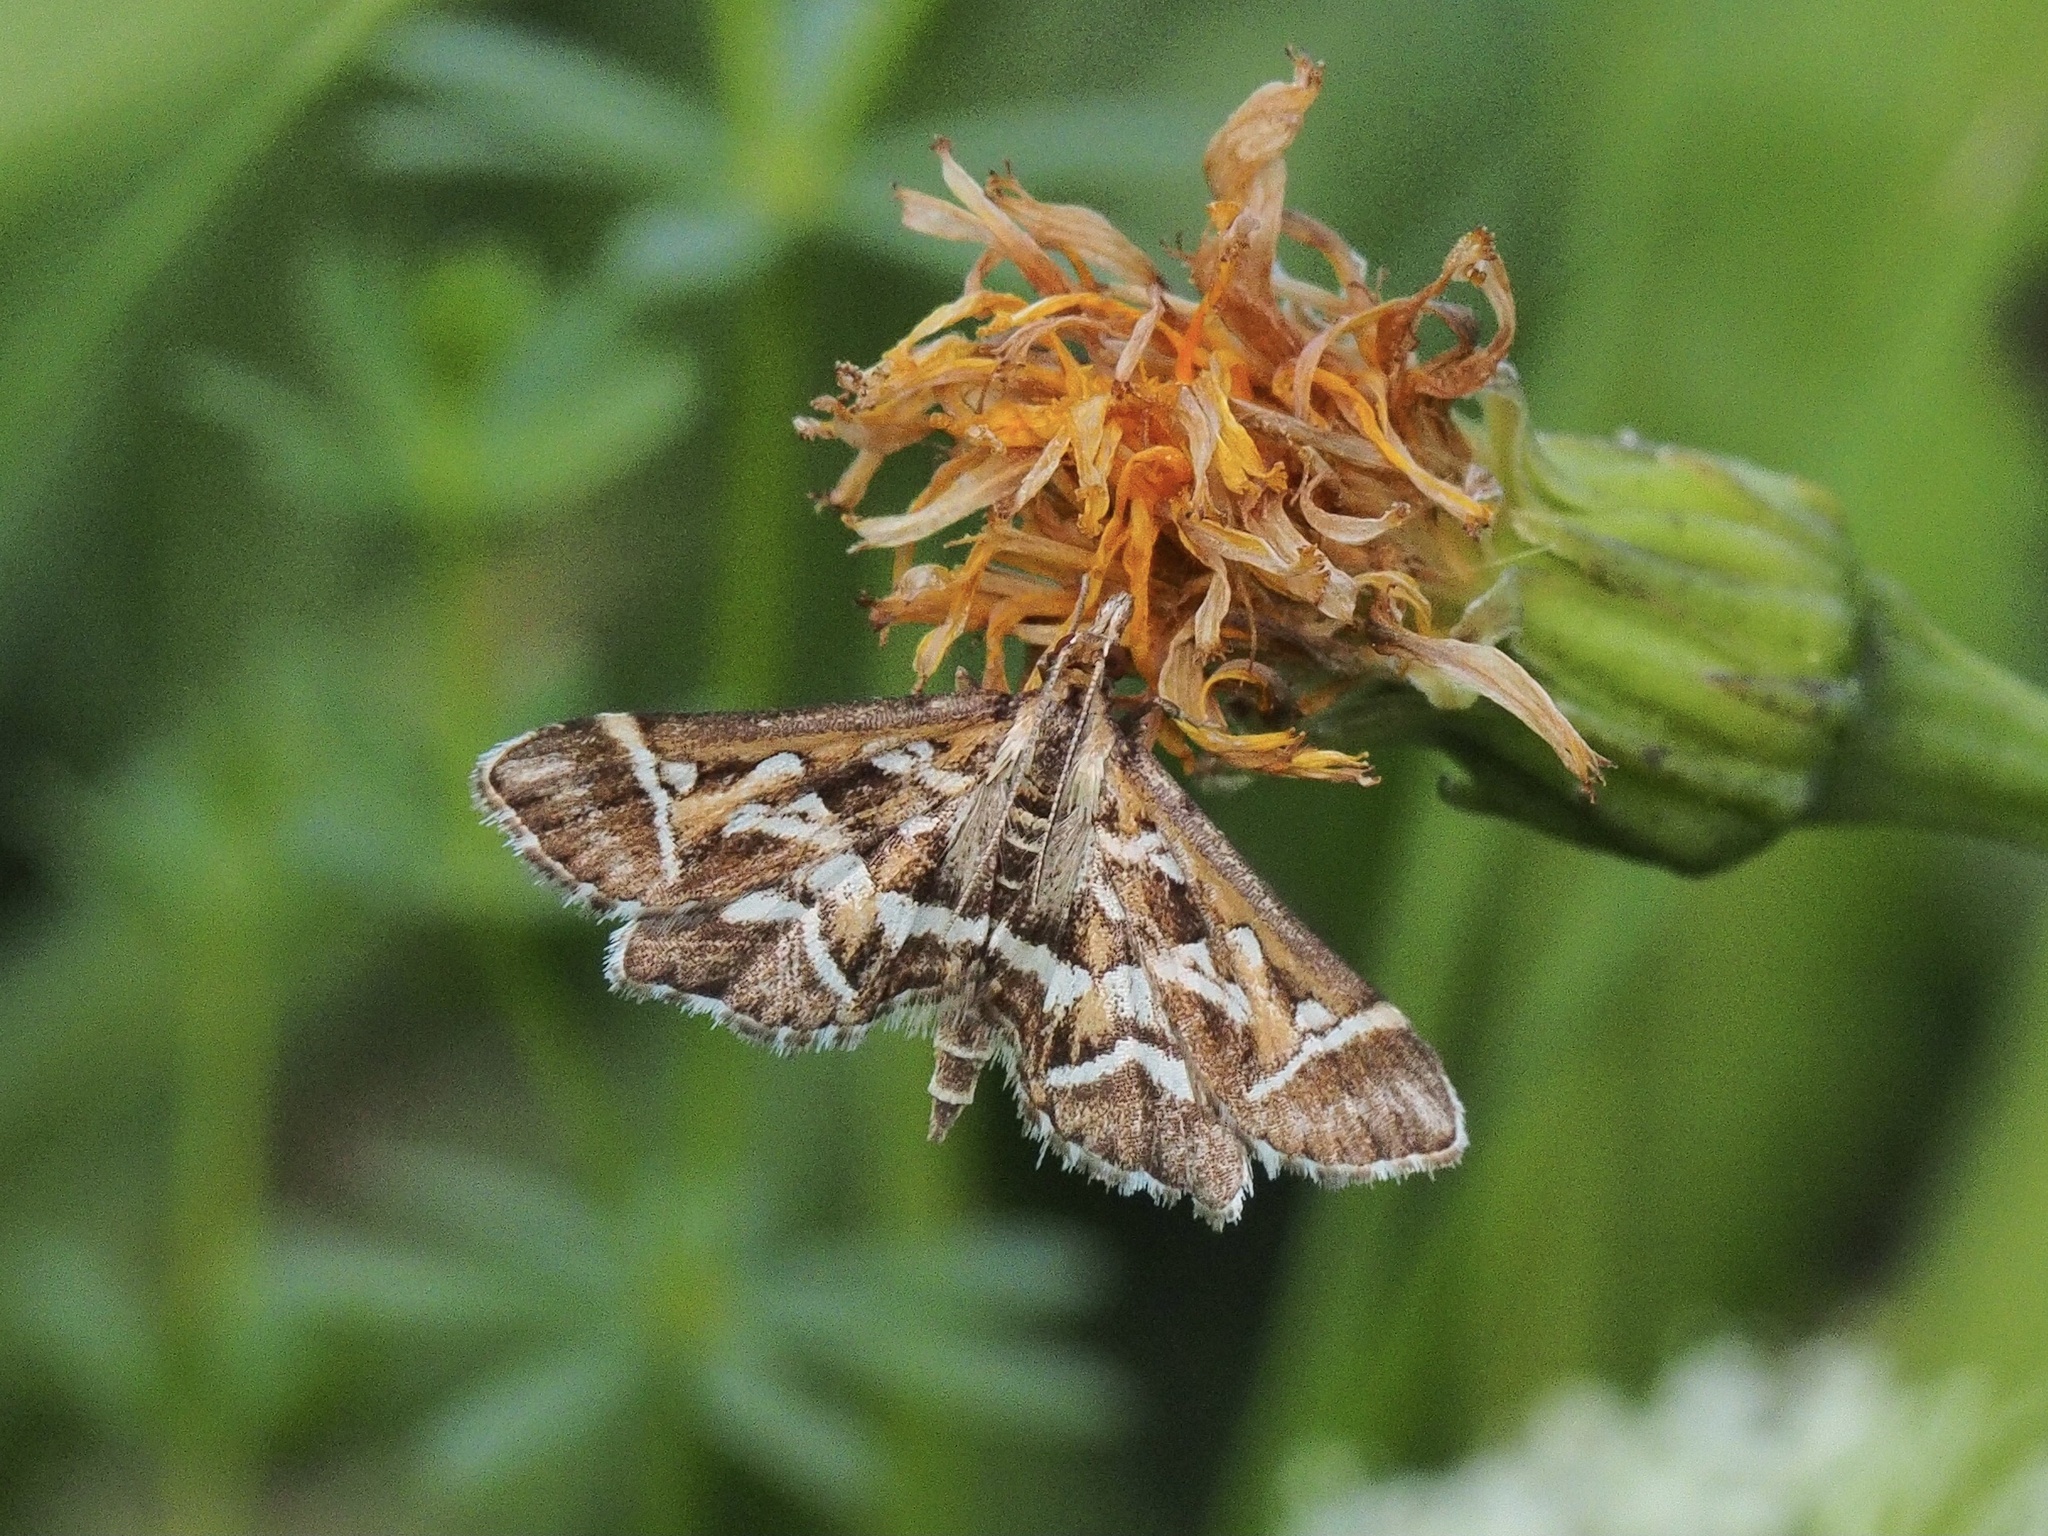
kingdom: Animalia
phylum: Arthropoda
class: Insecta
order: Lepidoptera
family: Crambidae
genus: Diasemia
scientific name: Diasemia reticularis
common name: Lettered china-mark
